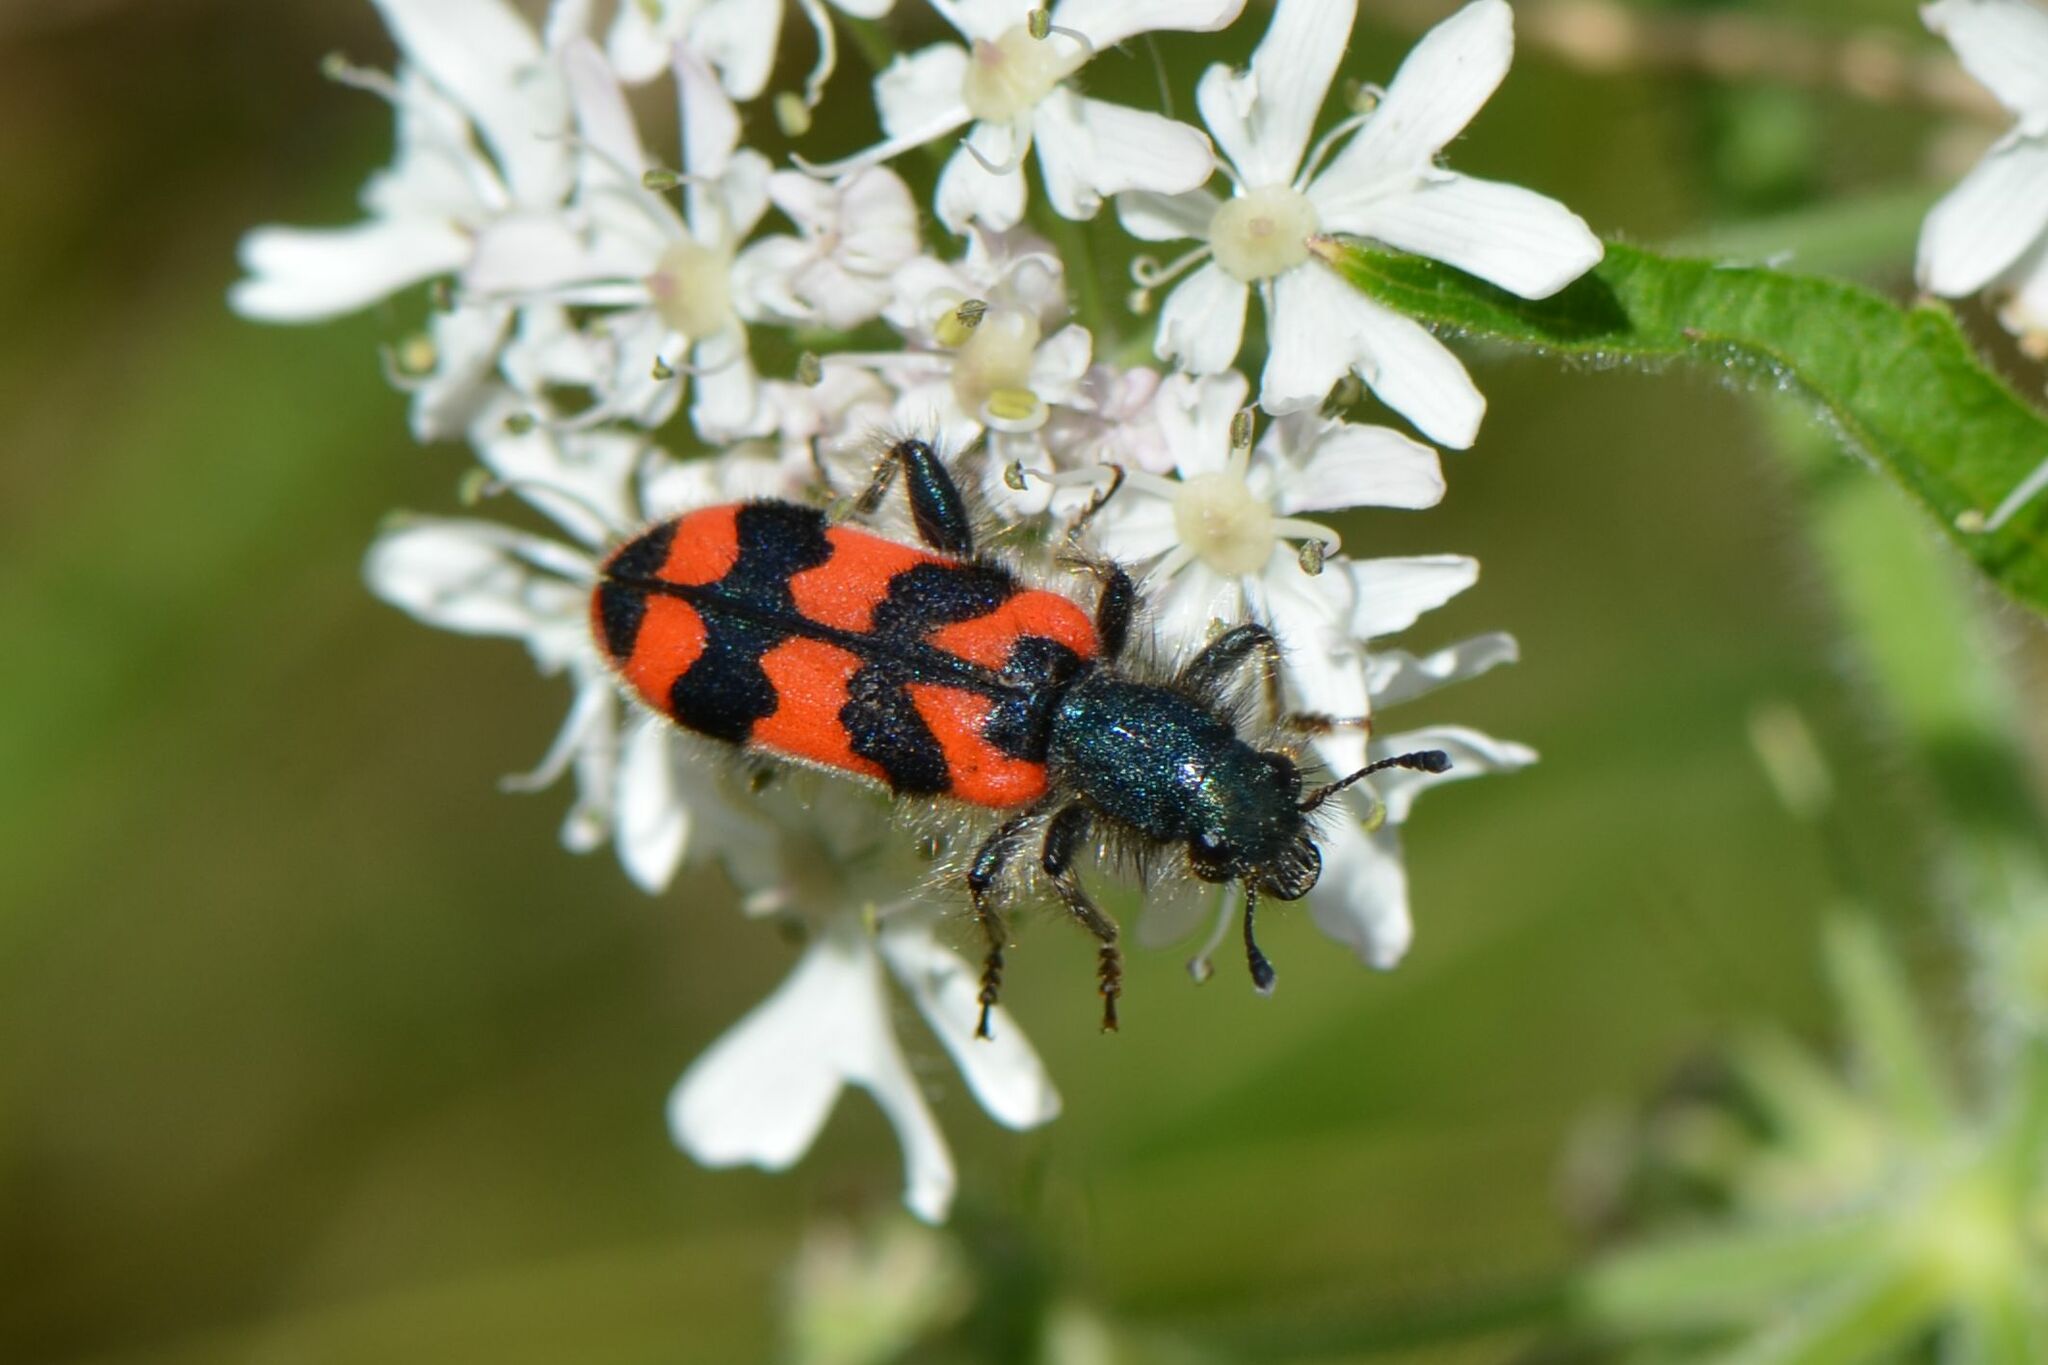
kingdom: Animalia
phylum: Arthropoda
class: Insecta
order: Coleoptera
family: Cleridae
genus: Trichodes
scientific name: Trichodes alvearius
